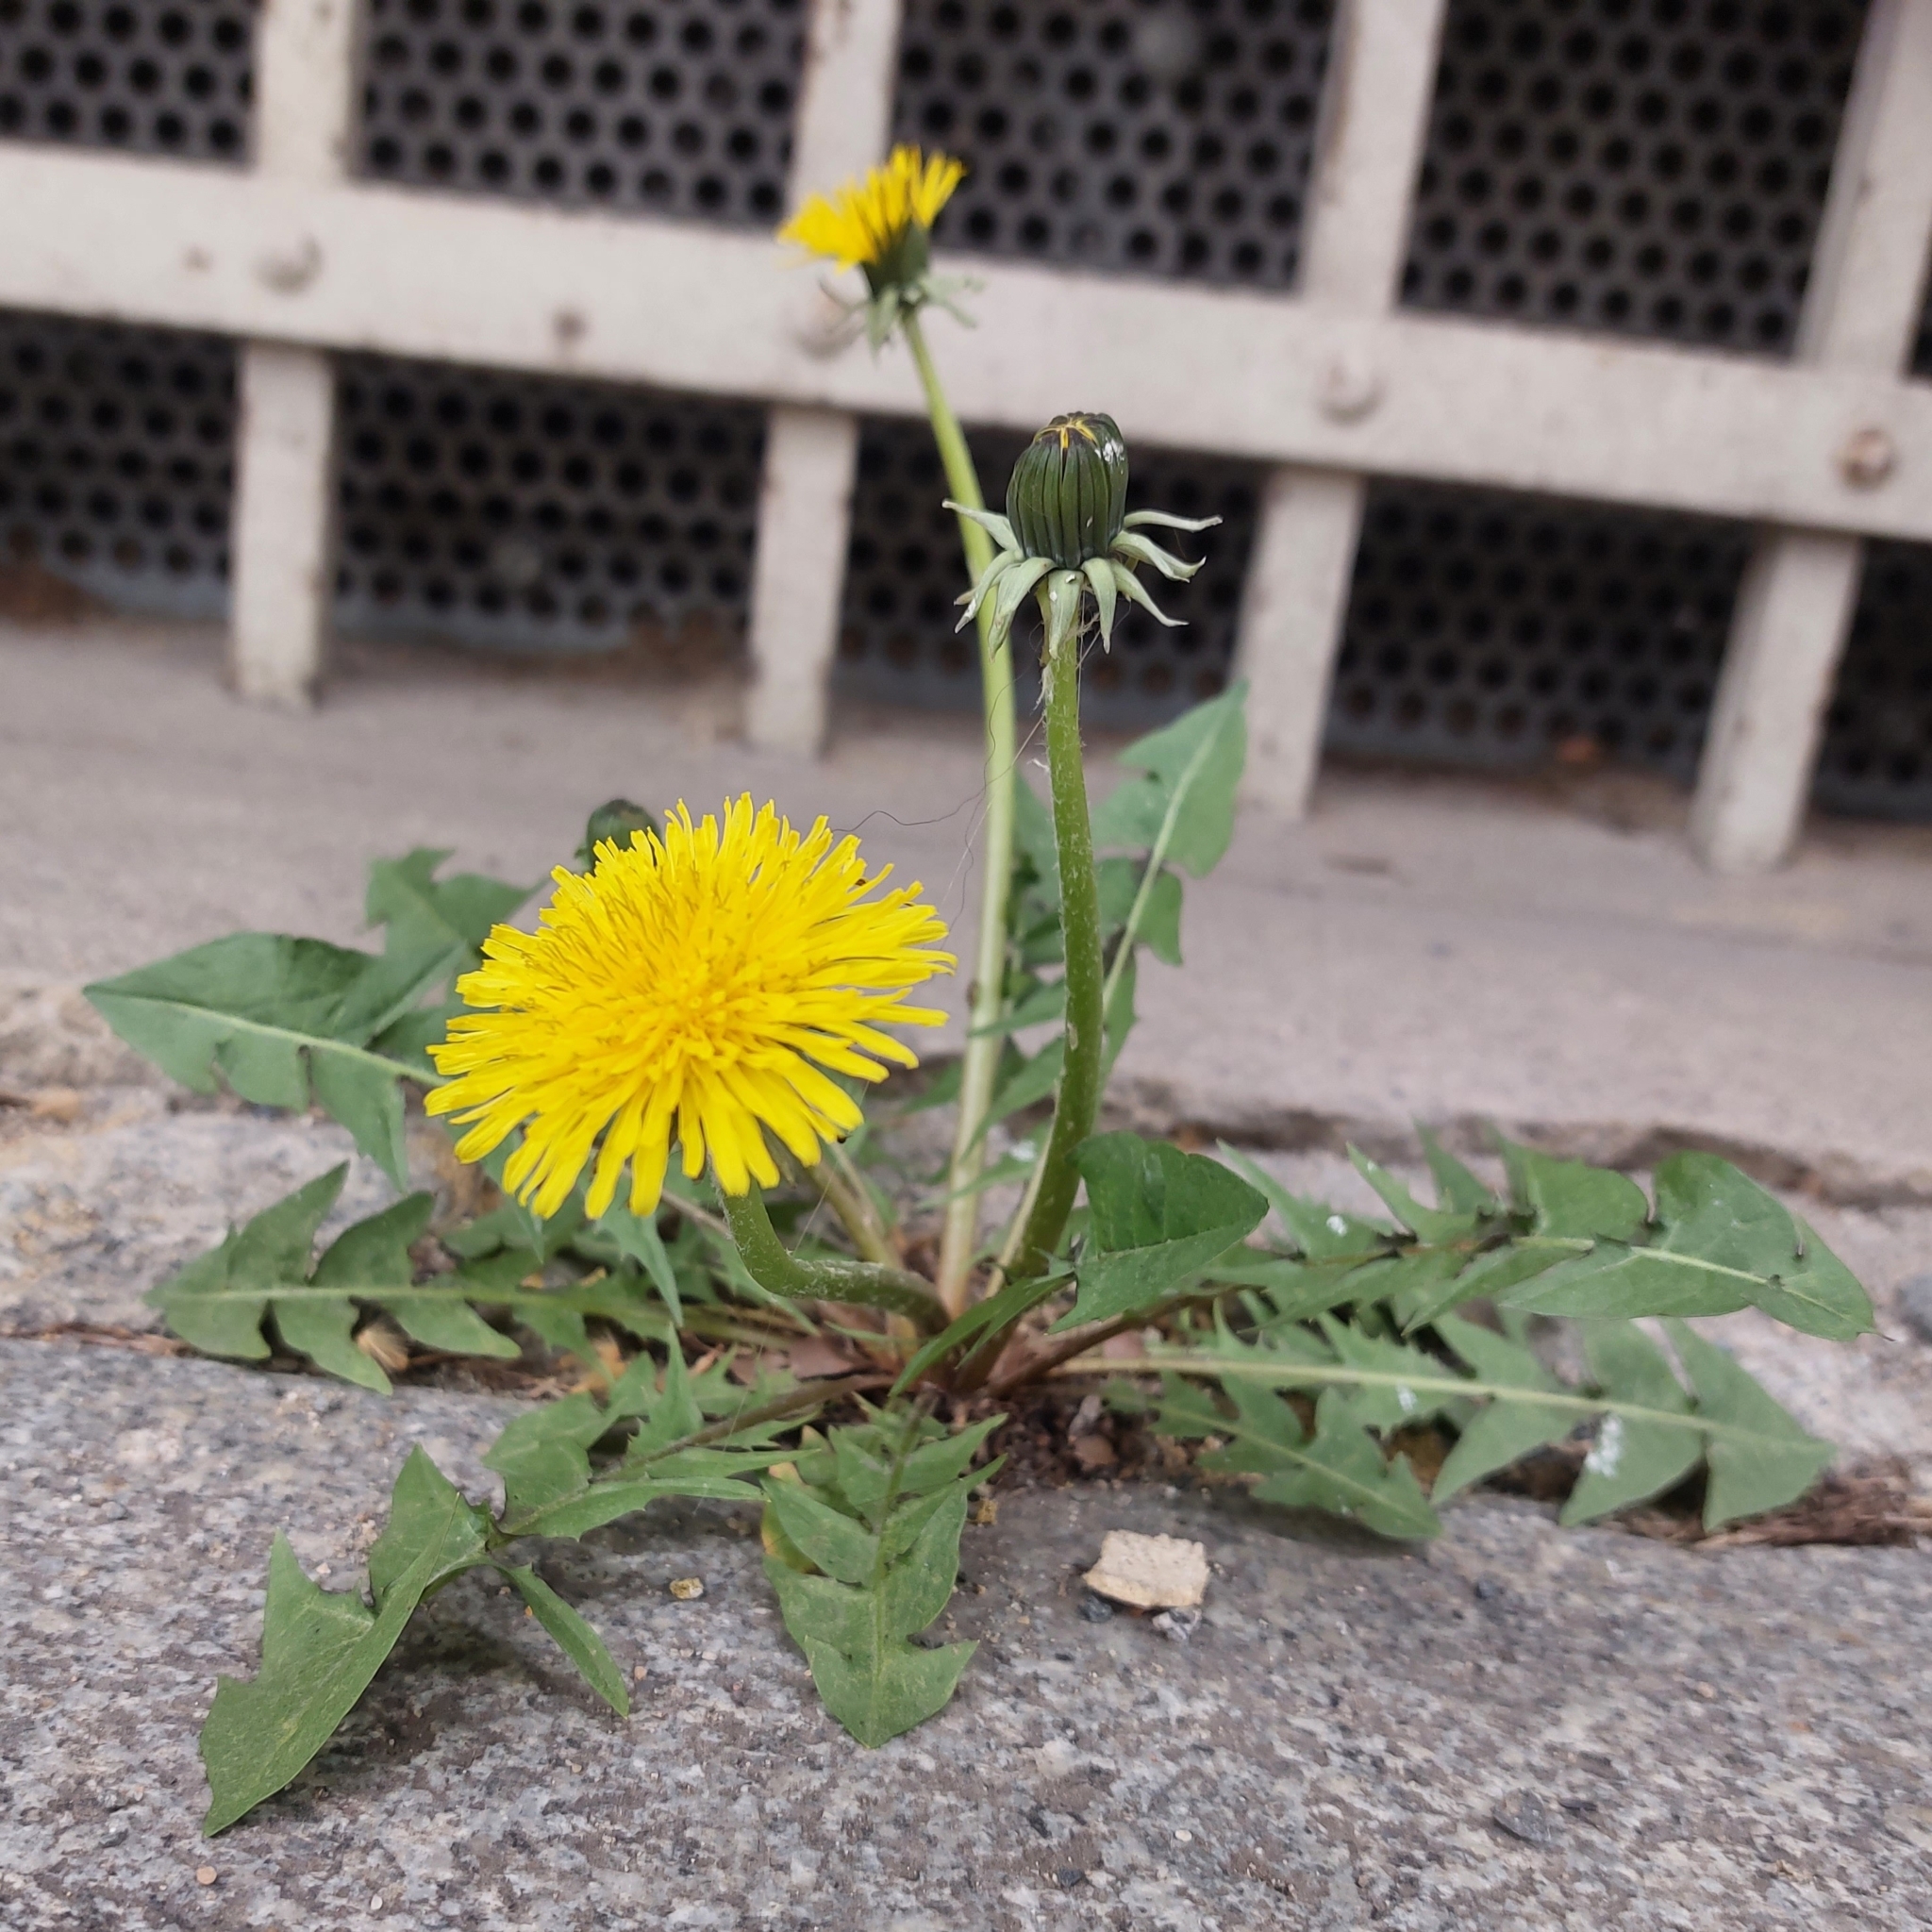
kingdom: Plantae
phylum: Tracheophyta
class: Magnoliopsida
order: Asterales
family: Asteraceae
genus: Taraxacum
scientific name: Taraxacum officinale
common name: Common dandelion
